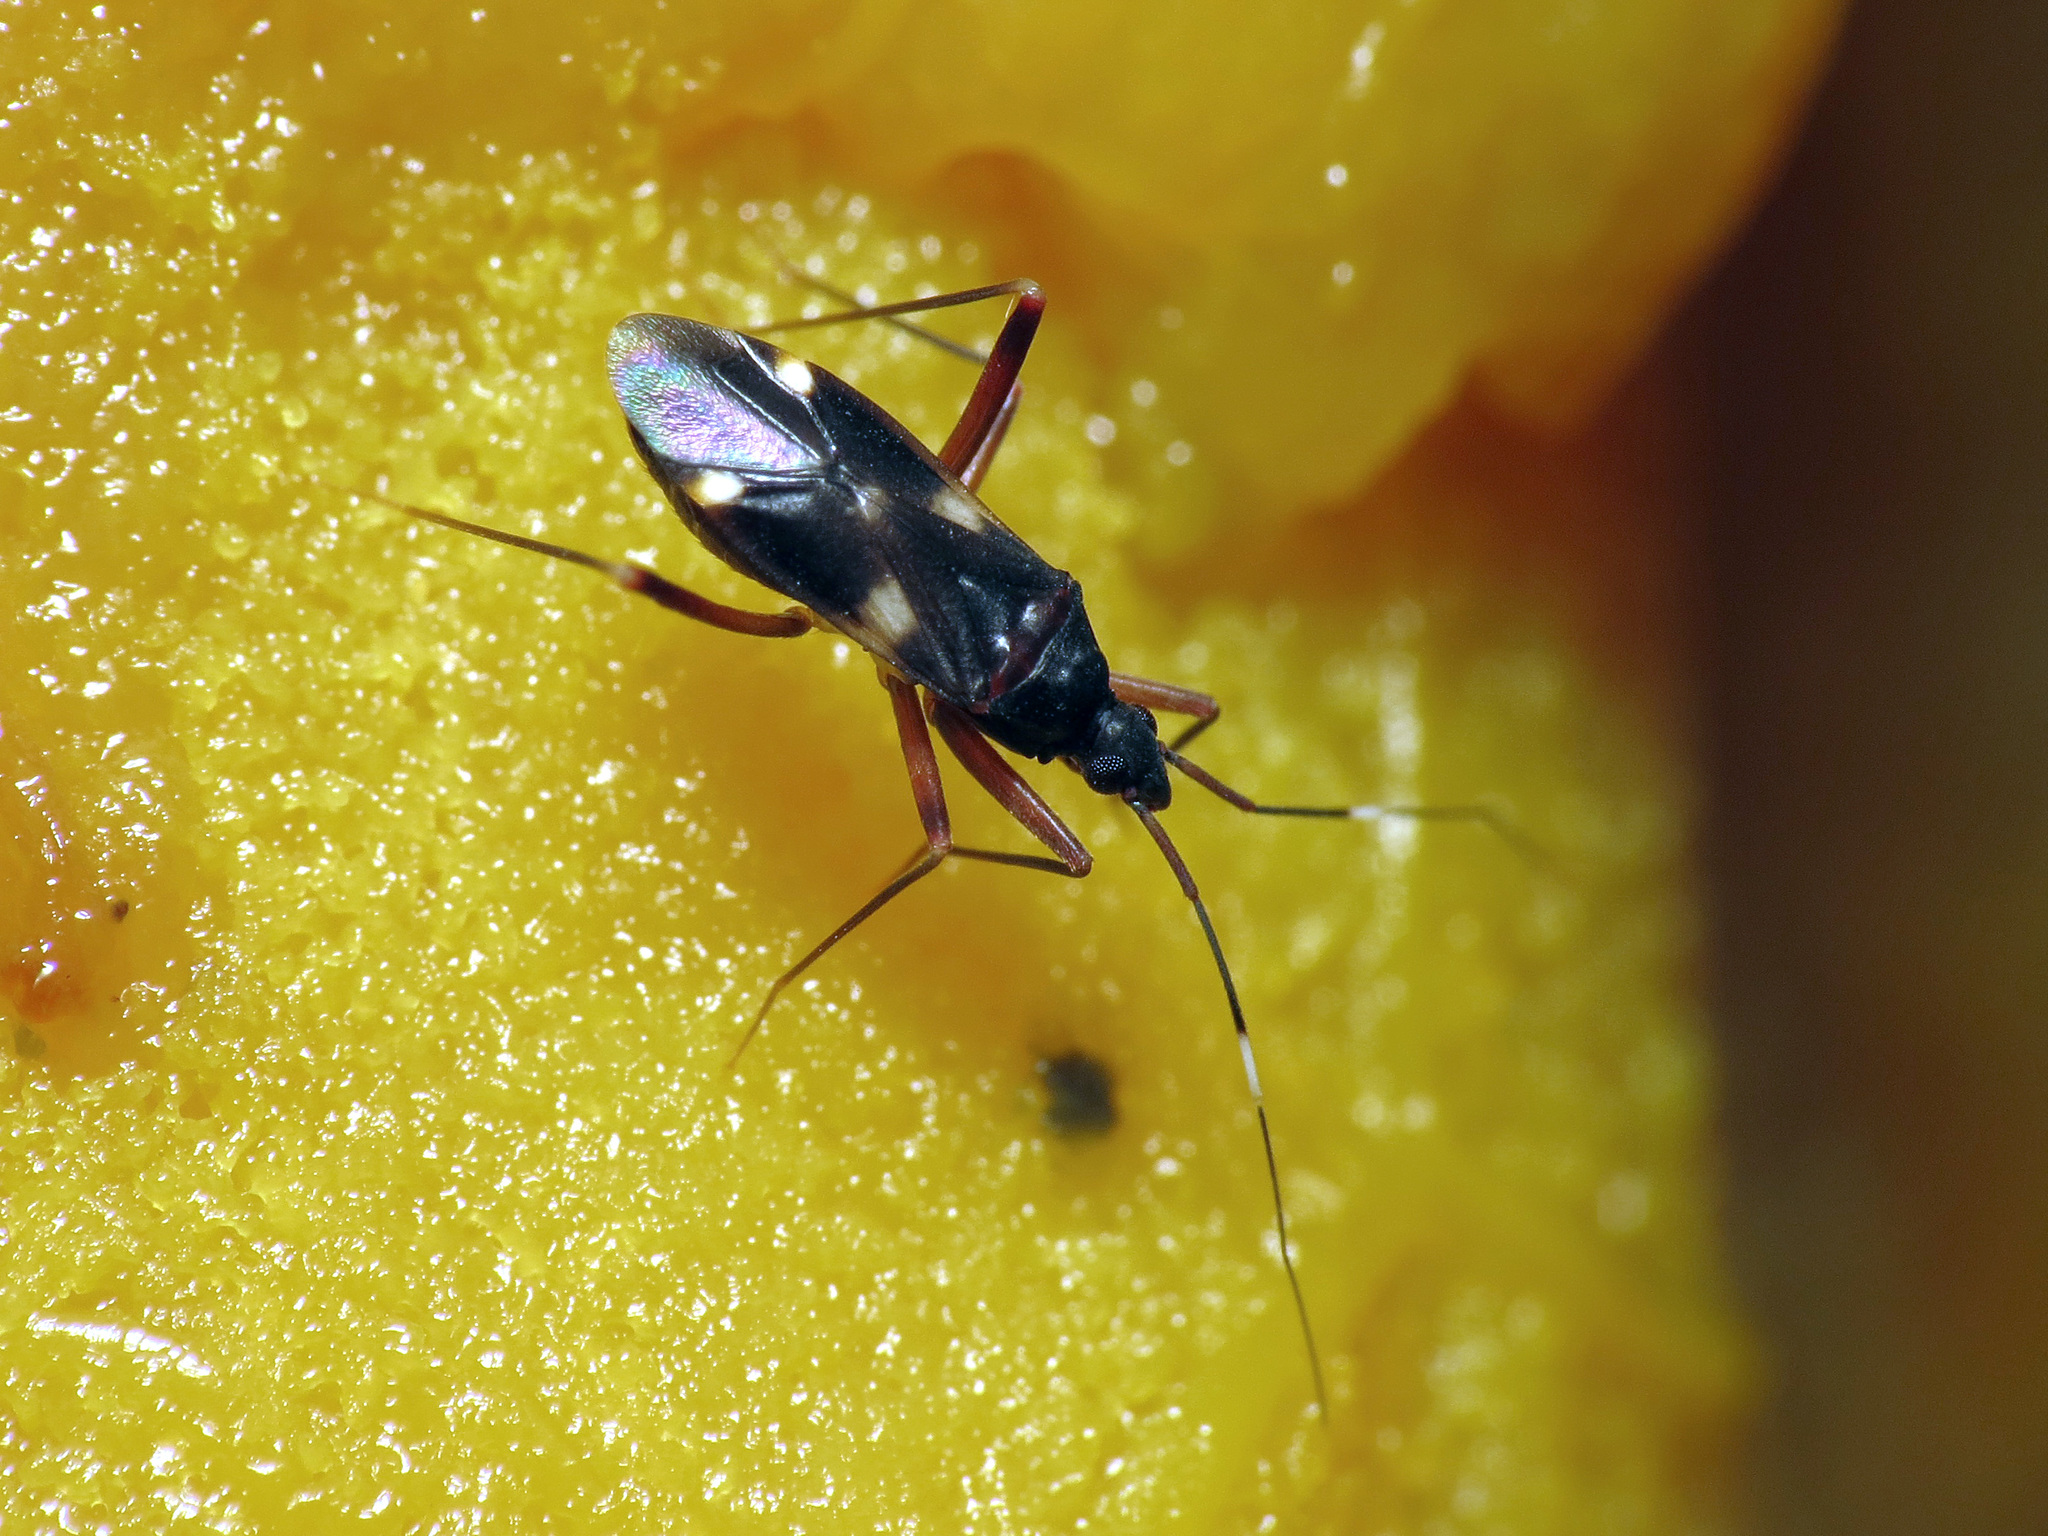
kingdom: Animalia
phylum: Arthropoda
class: Insecta
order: Hemiptera
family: Miridae
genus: Fulvius
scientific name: Fulvius imbecilis
